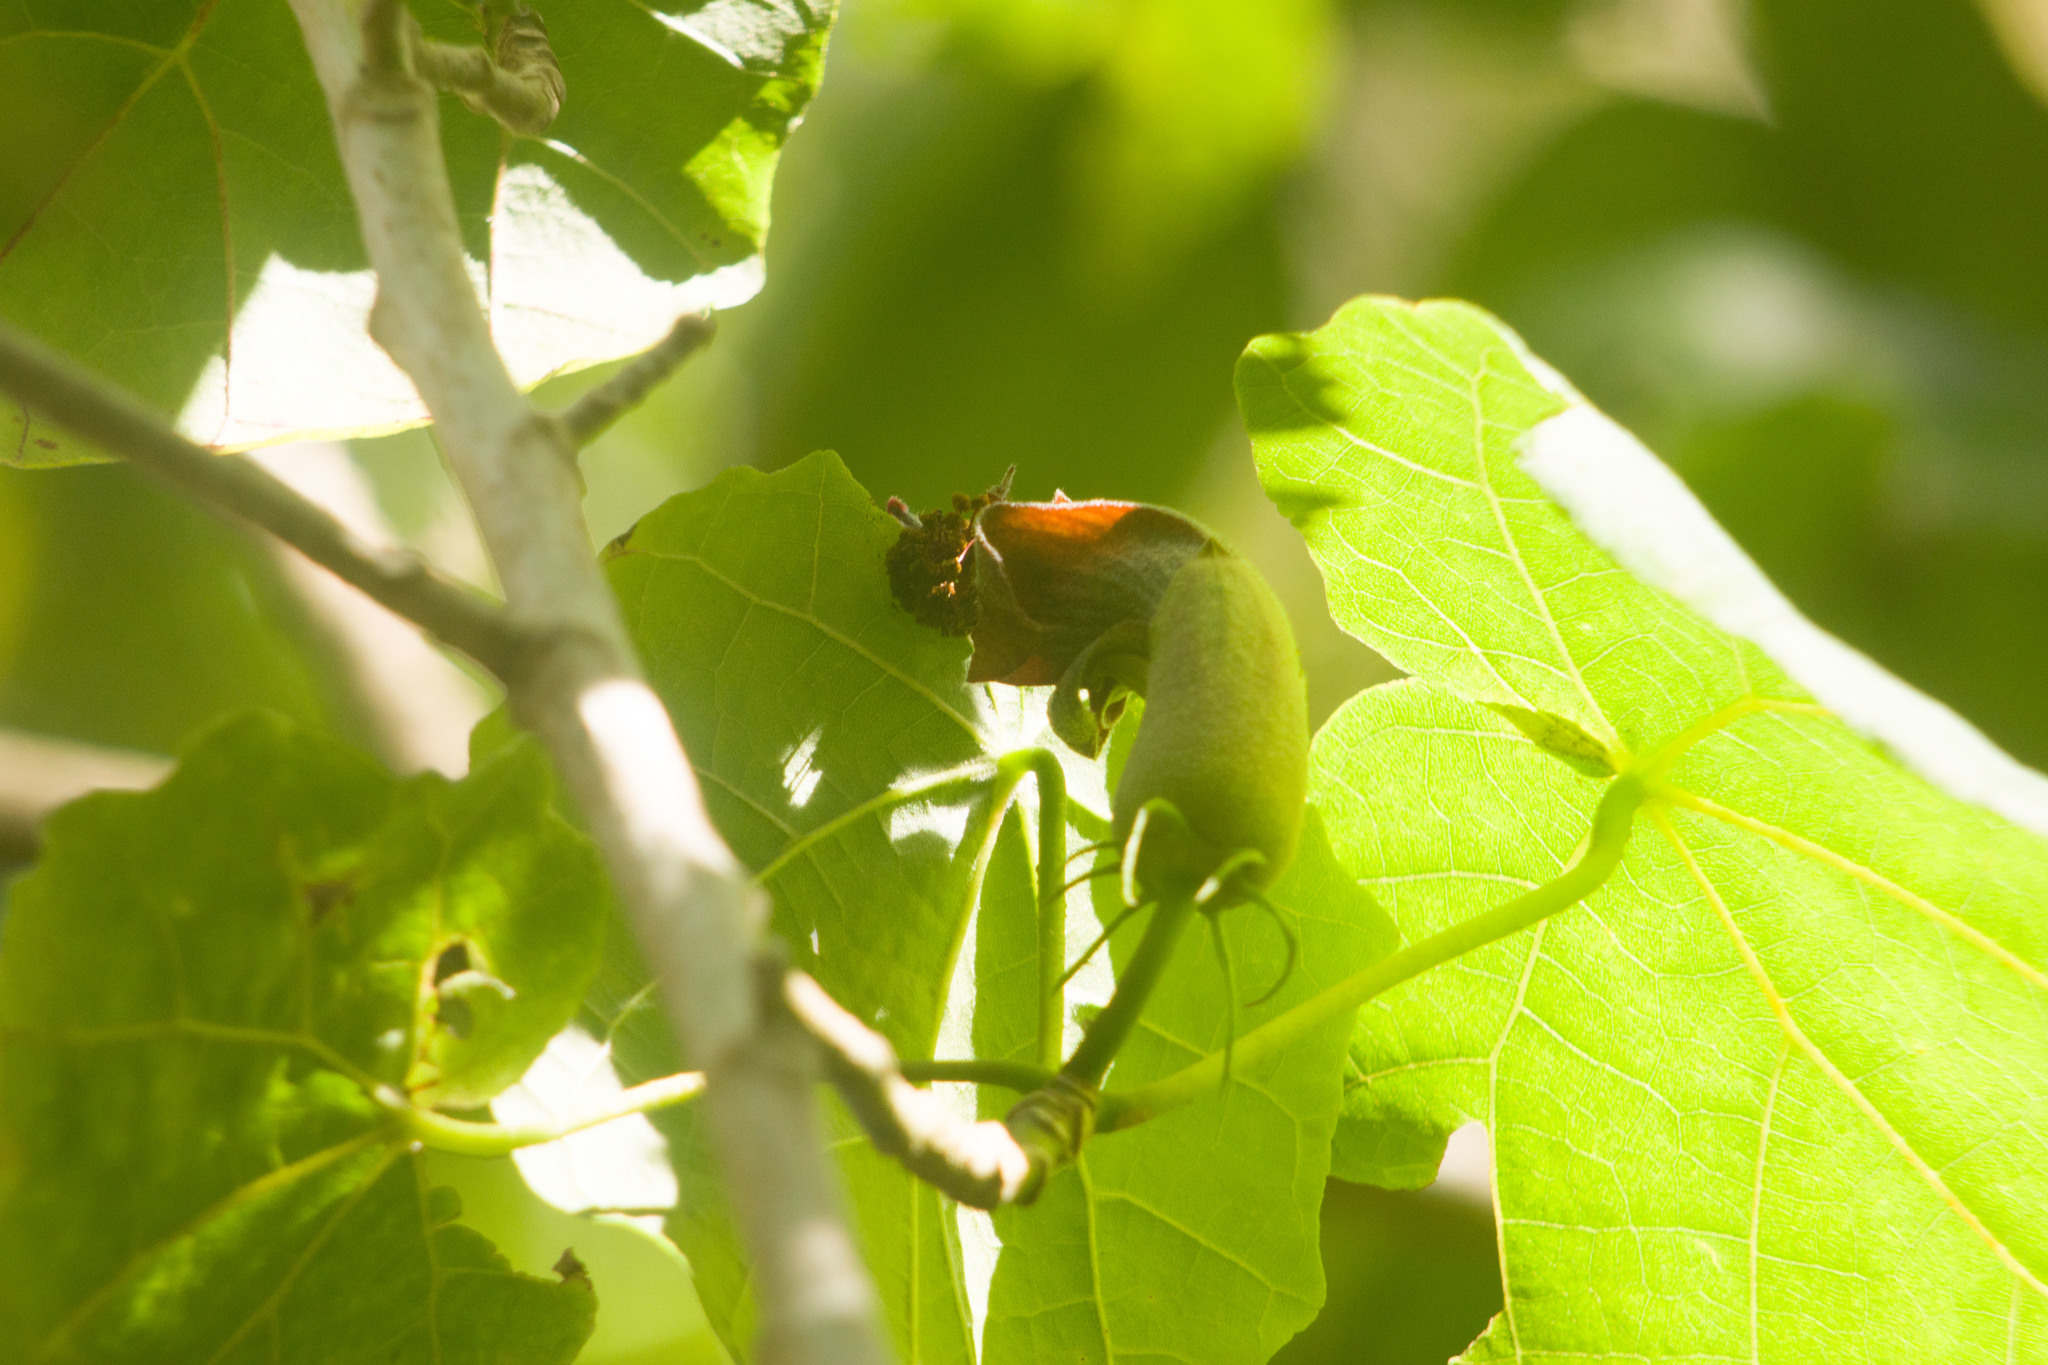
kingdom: Plantae
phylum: Tracheophyta
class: Magnoliopsida
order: Malvales
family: Malvaceae
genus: Hibiscadelphus
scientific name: Hibiscadelphus giffardianus
